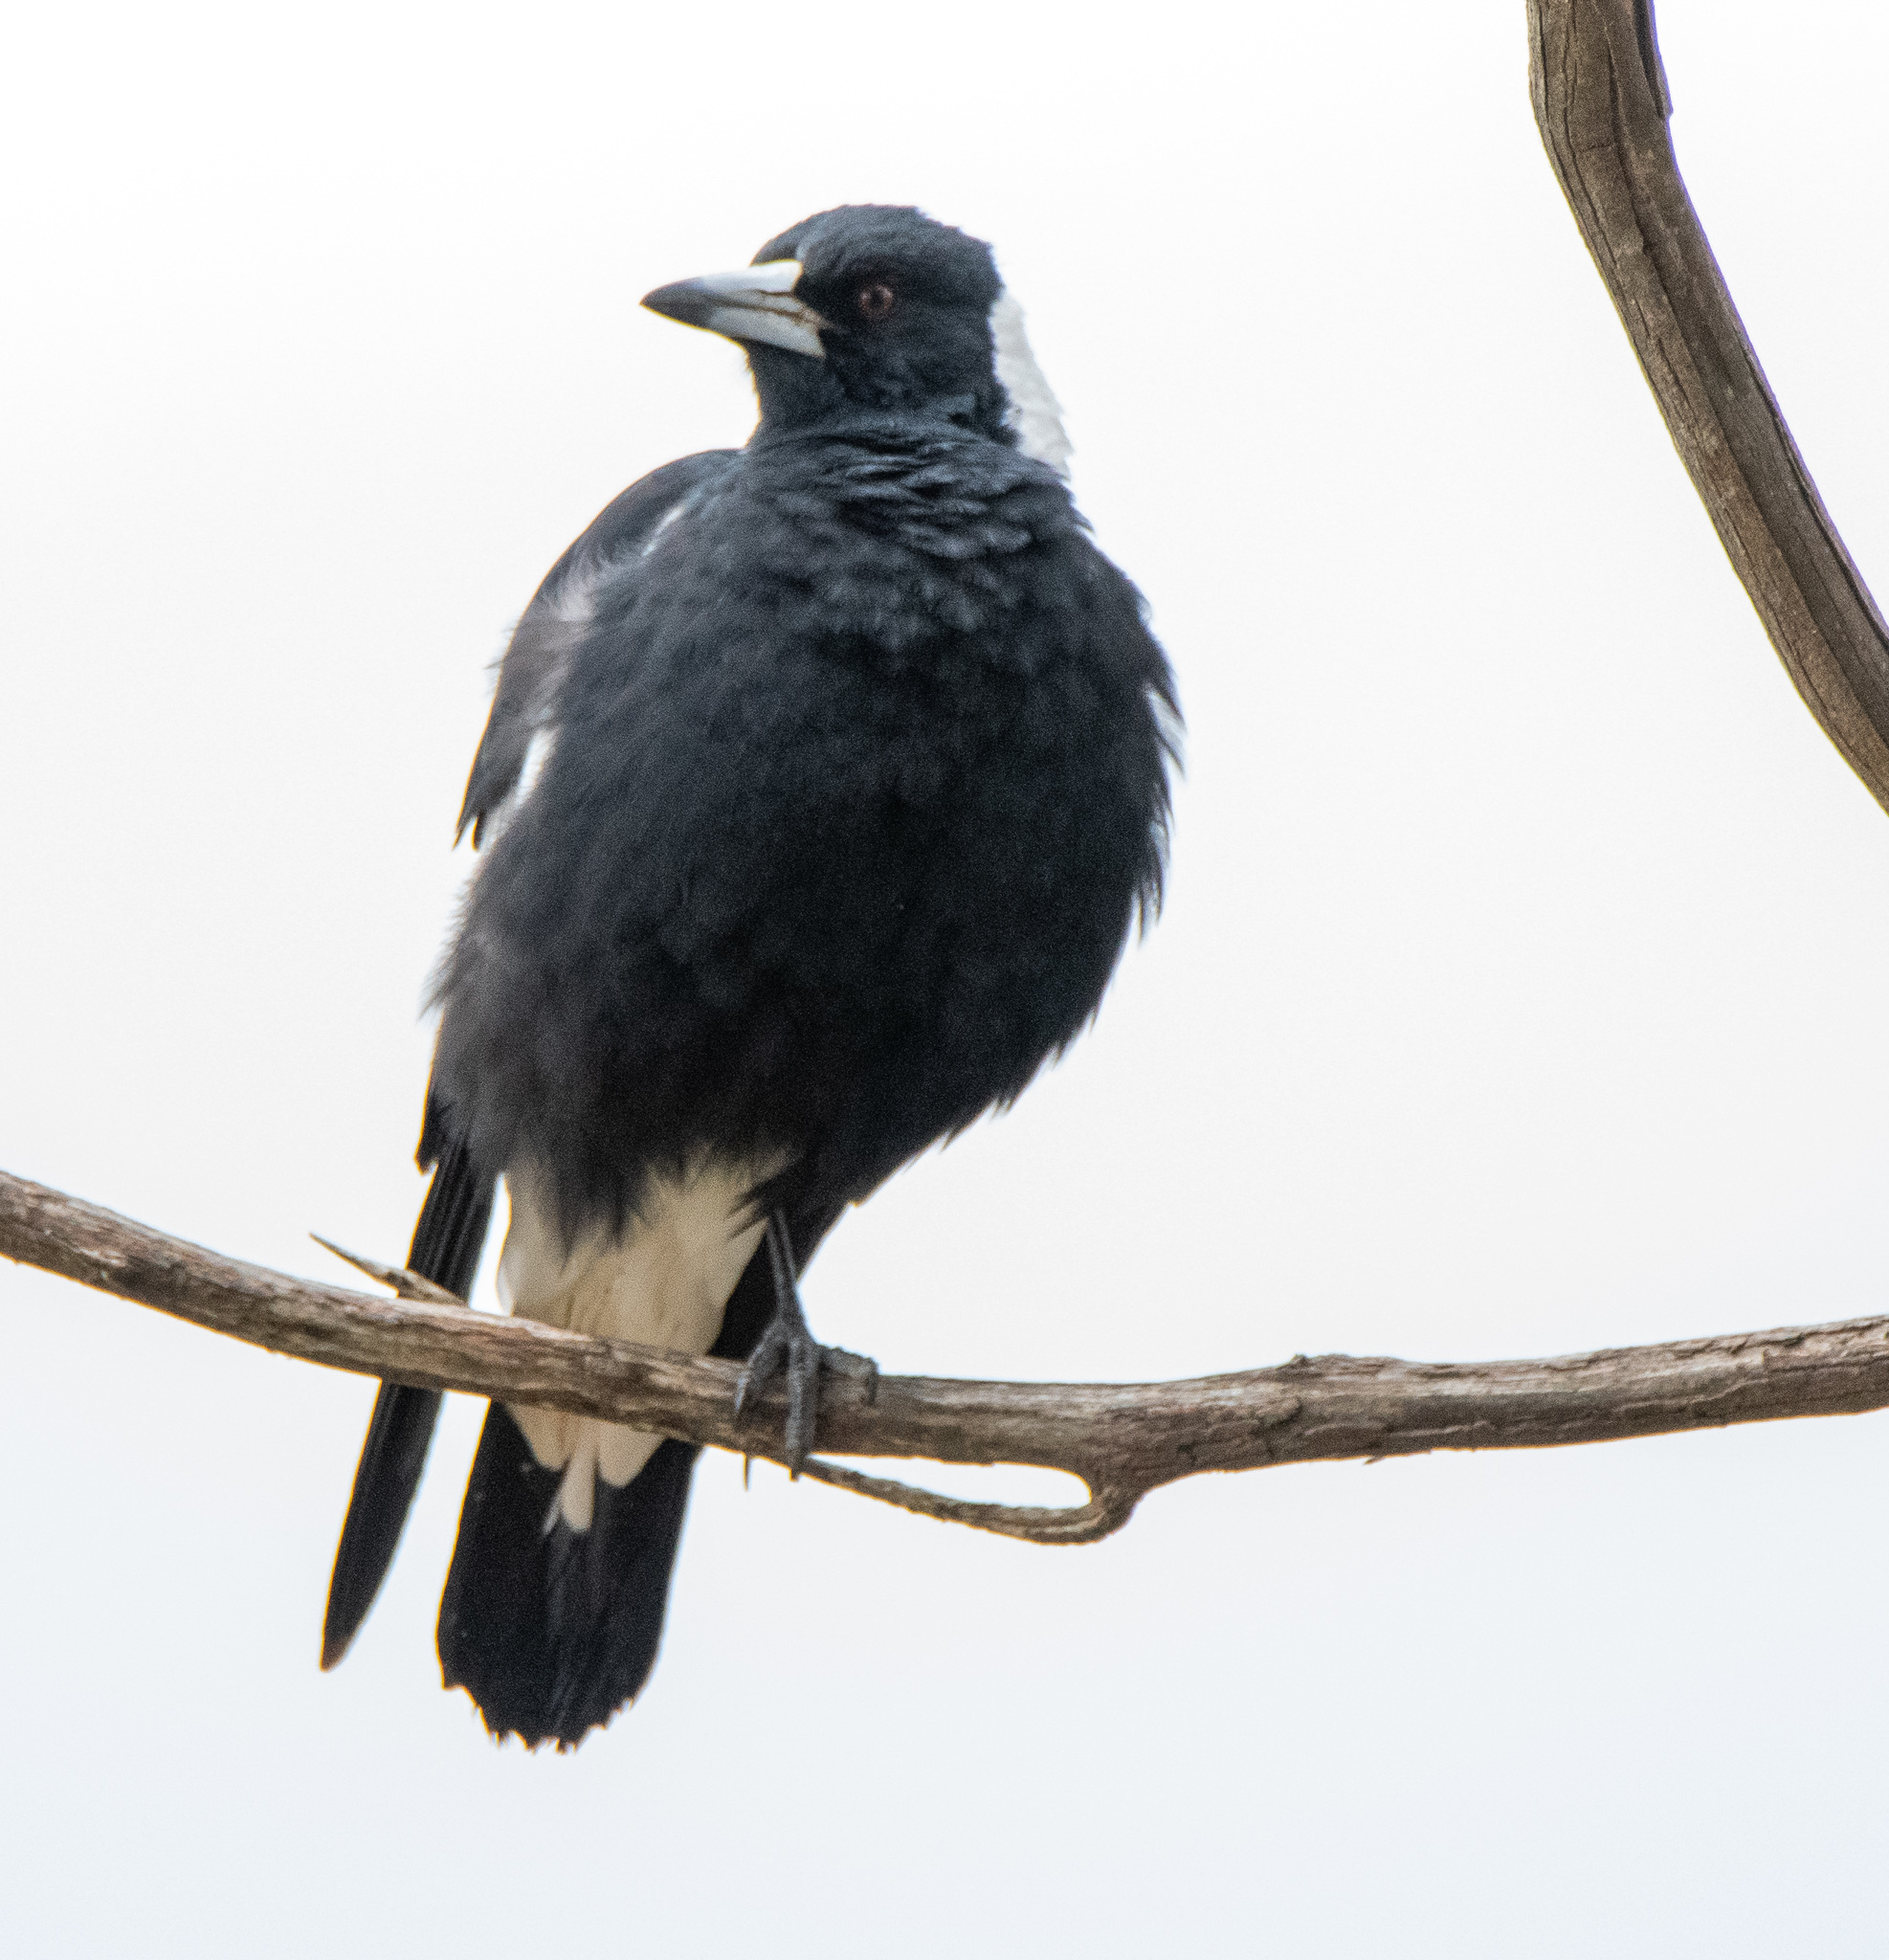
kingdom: Animalia
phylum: Chordata
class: Aves
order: Passeriformes
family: Cracticidae
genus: Gymnorhina
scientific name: Gymnorhina tibicen
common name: Australian magpie
